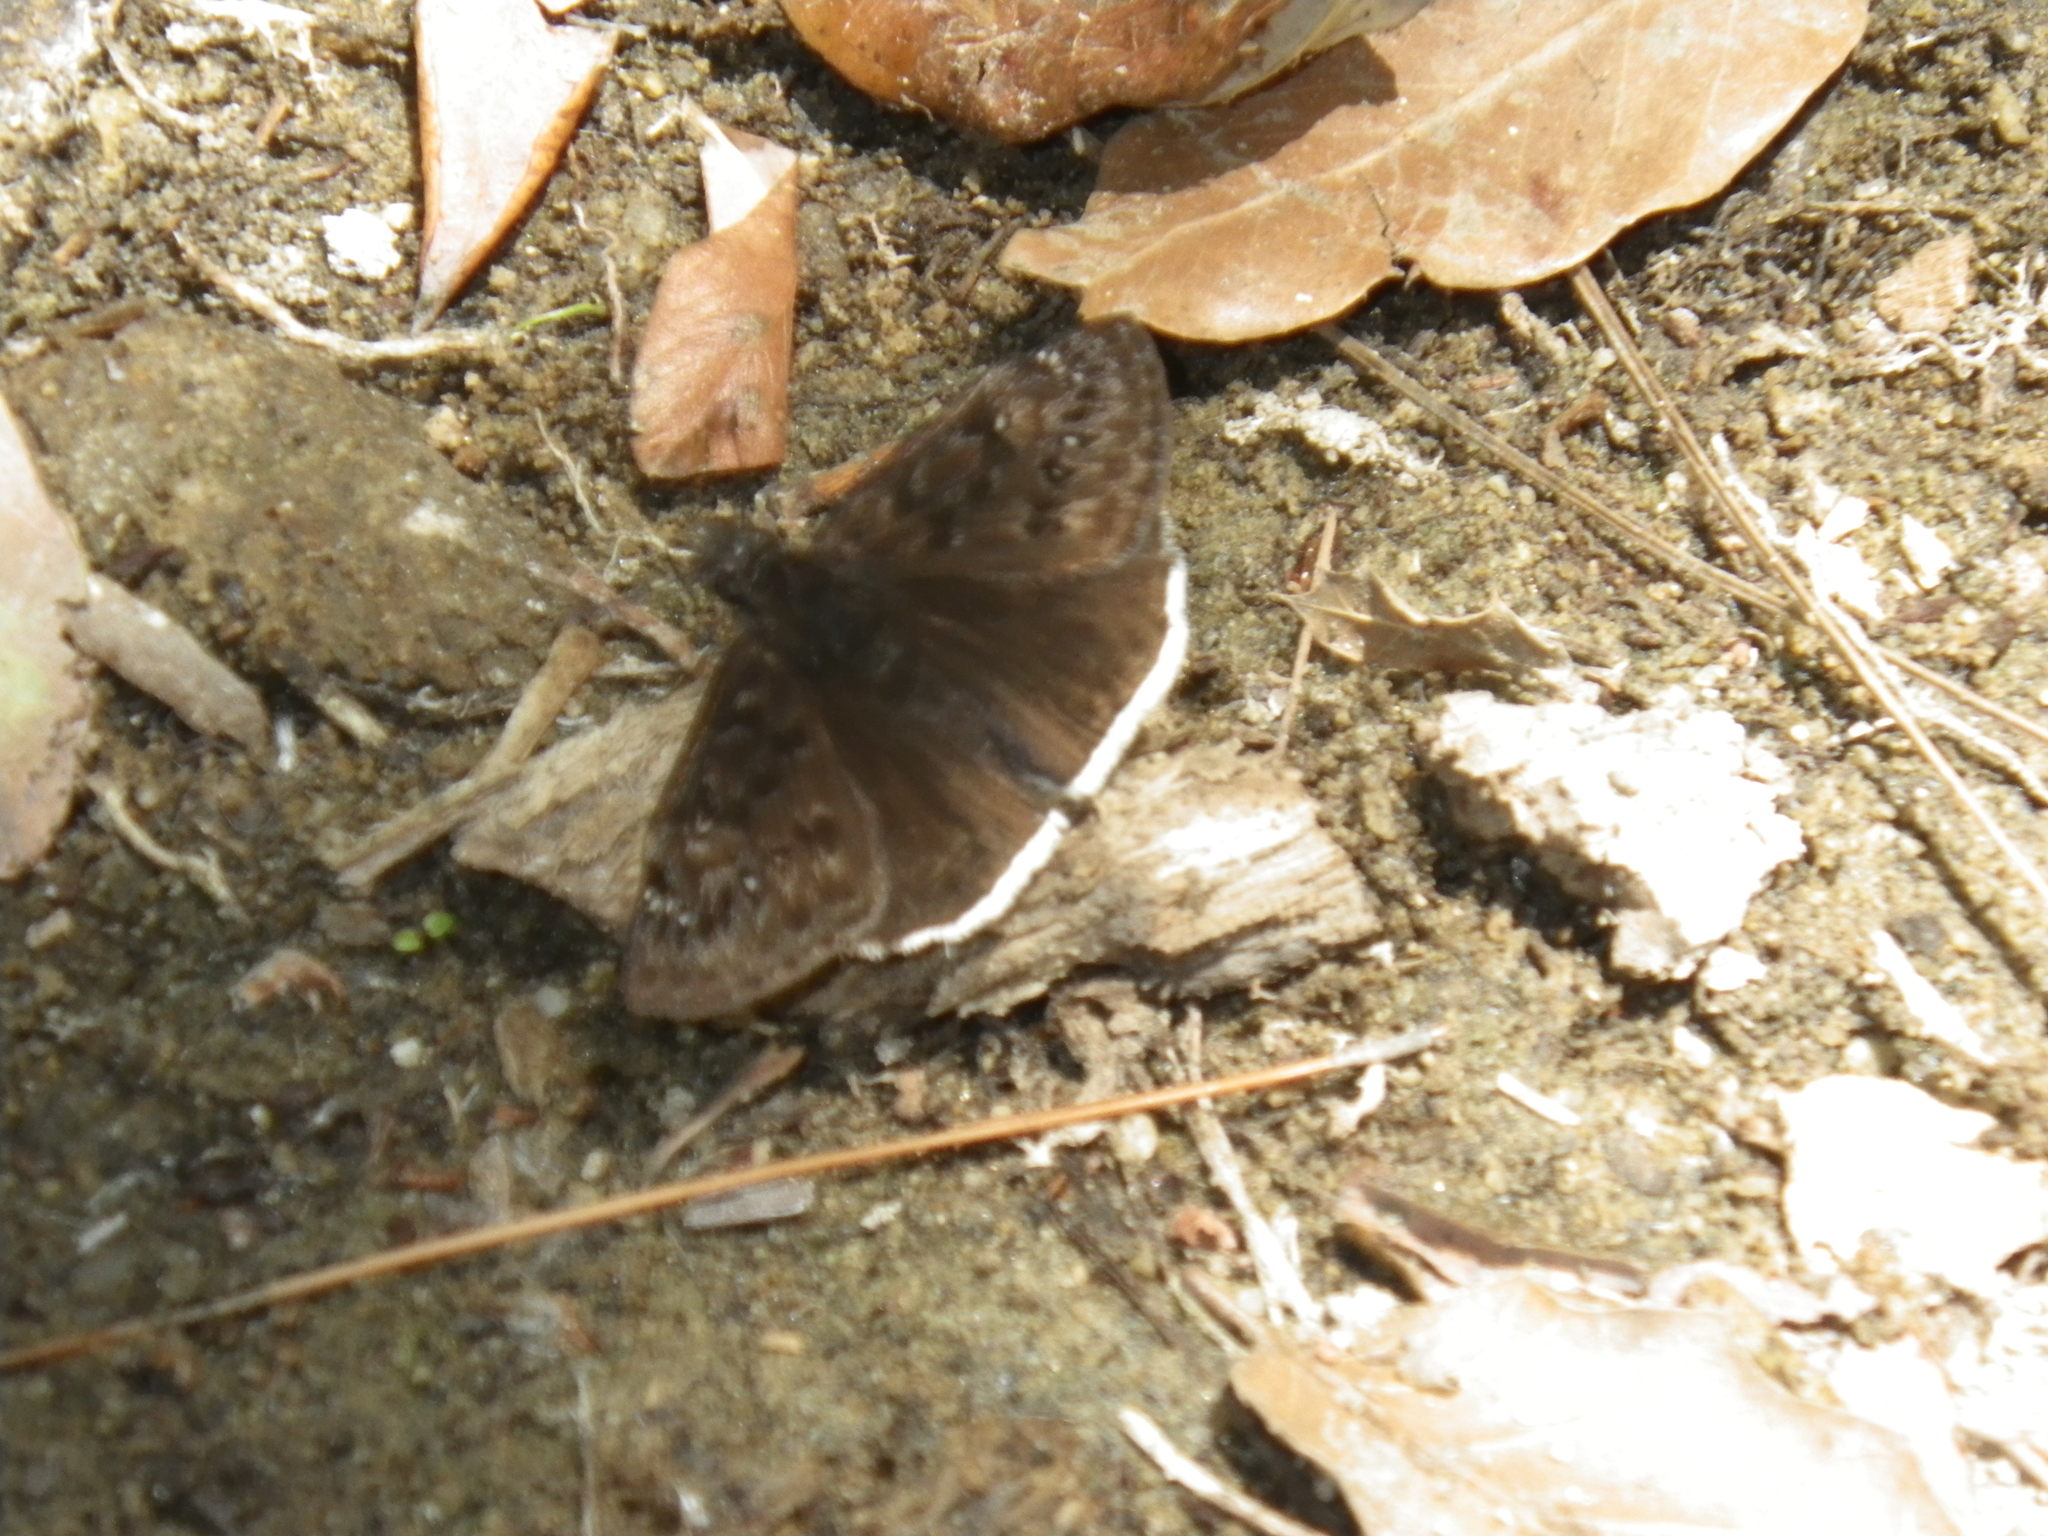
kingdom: Animalia
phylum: Arthropoda
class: Insecta
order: Lepidoptera
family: Hesperiidae
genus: Erynnis
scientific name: Erynnis tristis
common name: Mournful duskywing
